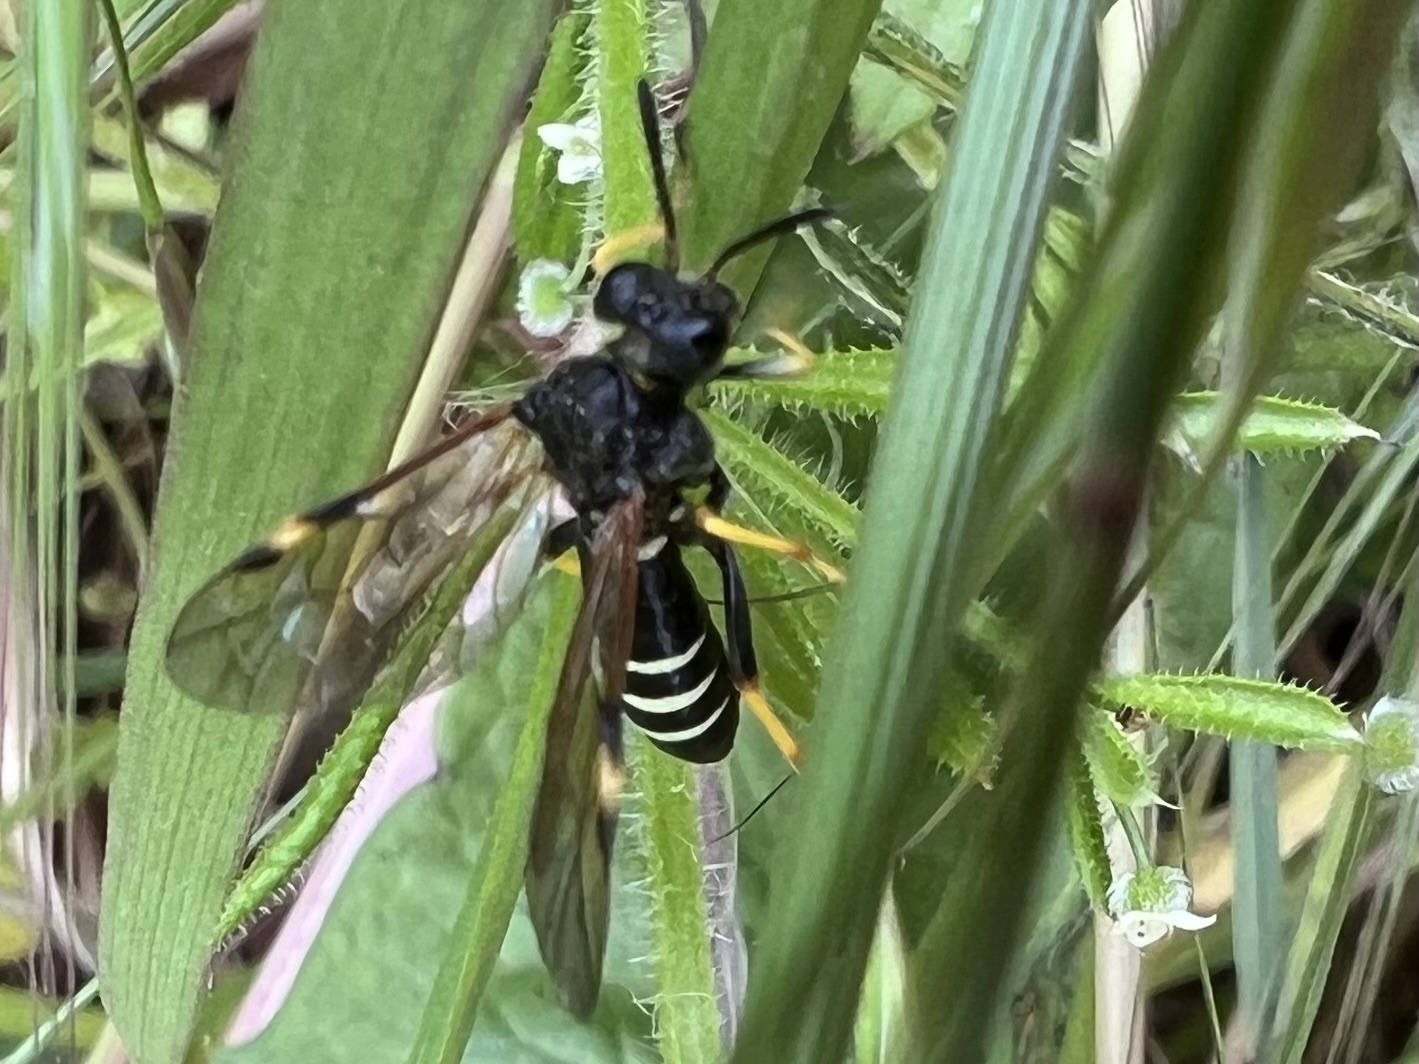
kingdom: Animalia
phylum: Arthropoda
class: Insecta
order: Hymenoptera
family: Tenthredinidae
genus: Tenthredo
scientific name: Tenthredo koehleri
